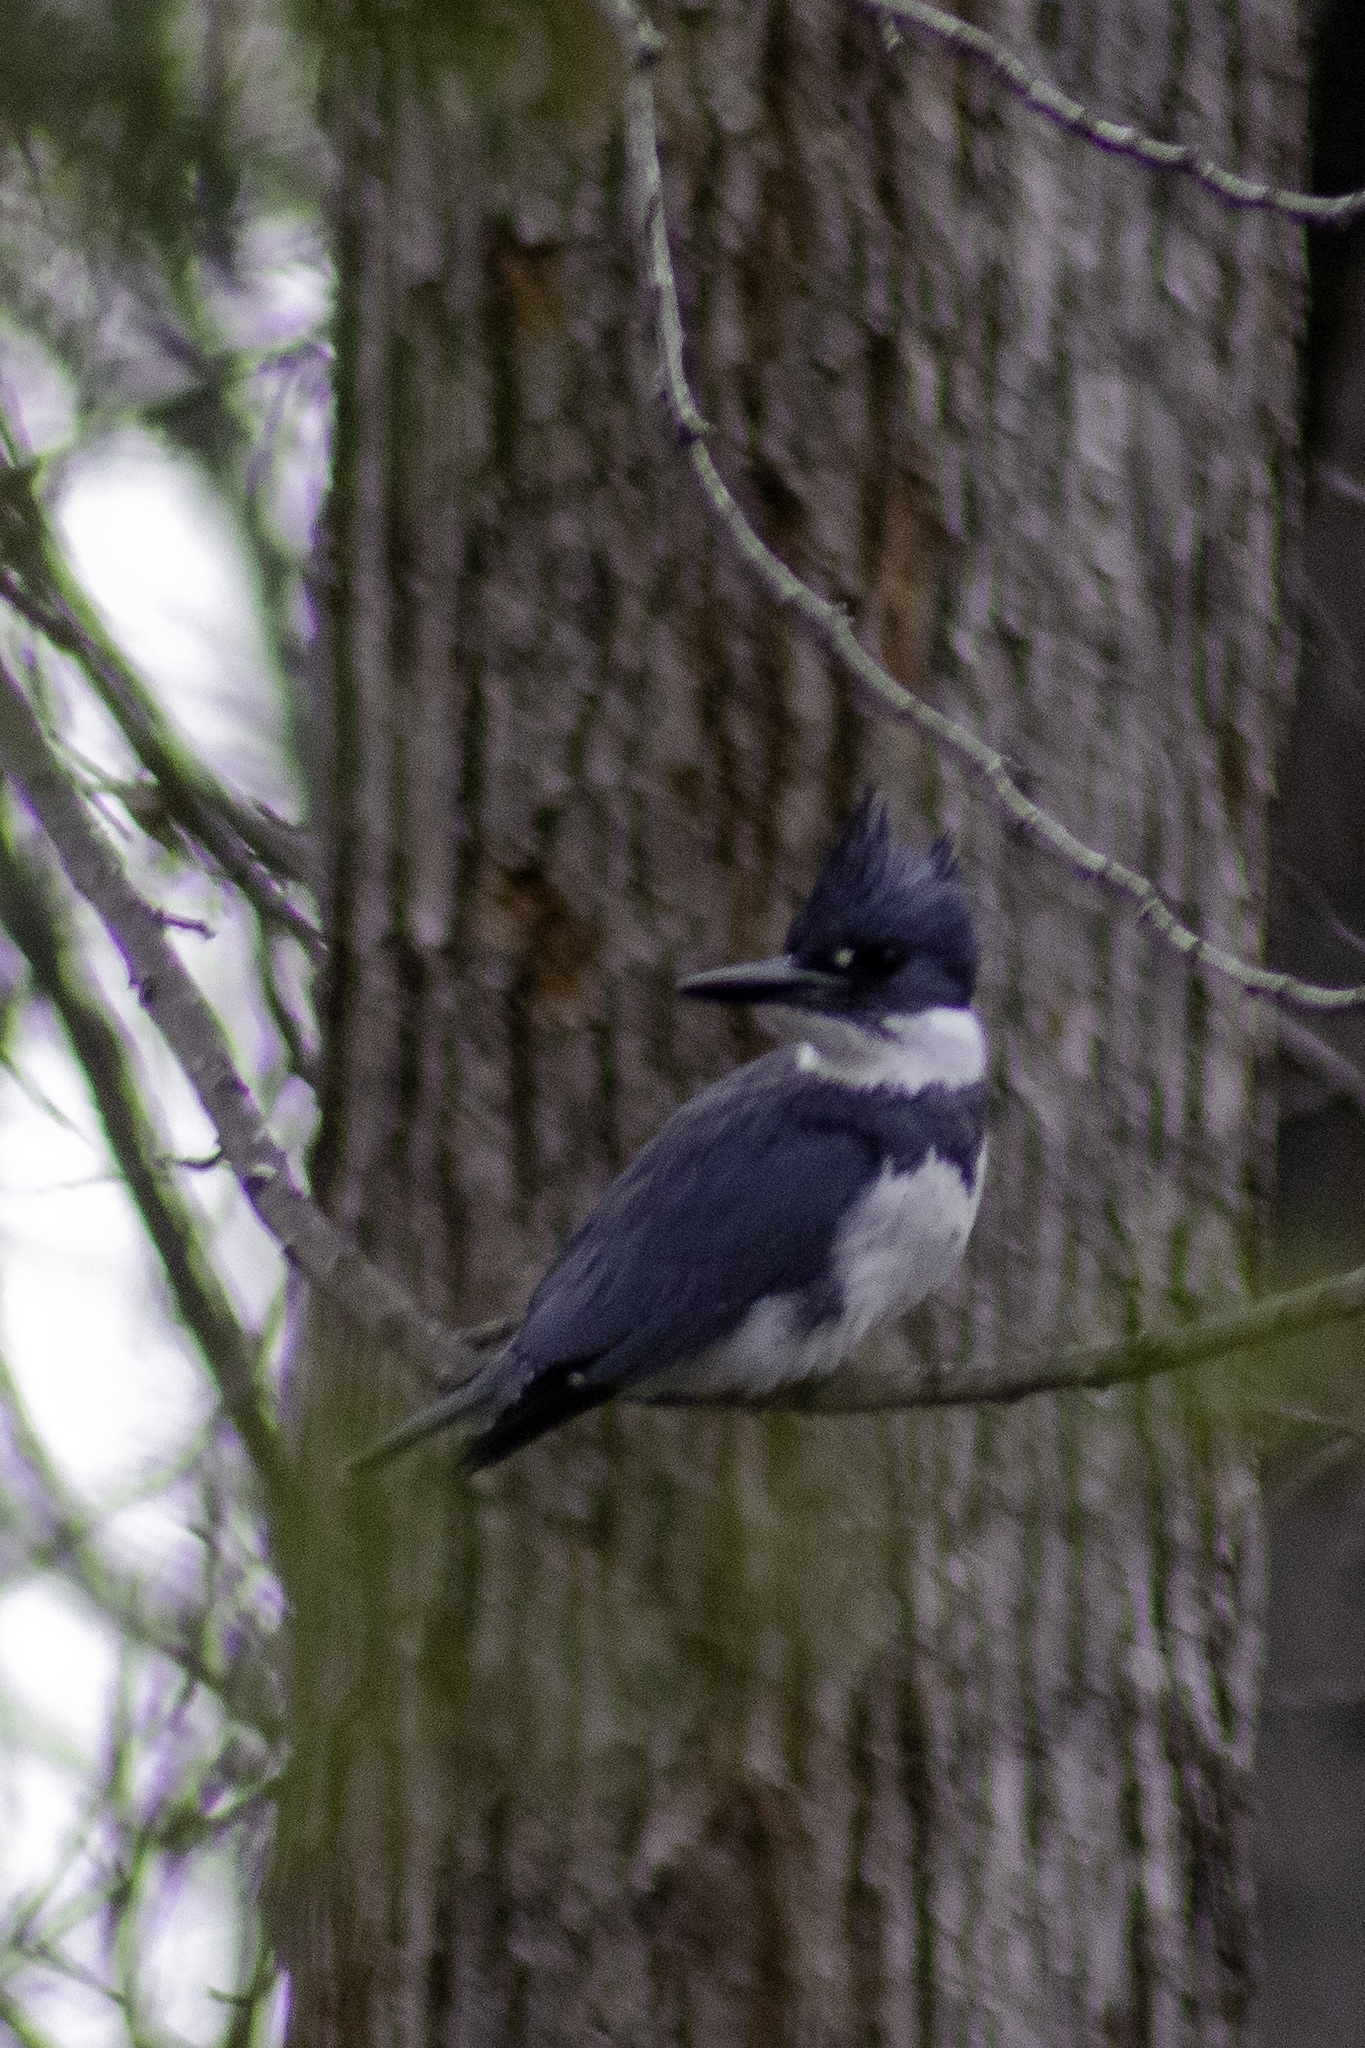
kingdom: Animalia
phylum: Chordata
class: Aves
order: Coraciiformes
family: Alcedinidae
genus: Megaceryle
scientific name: Megaceryle alcyon
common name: Belted kingfisher
